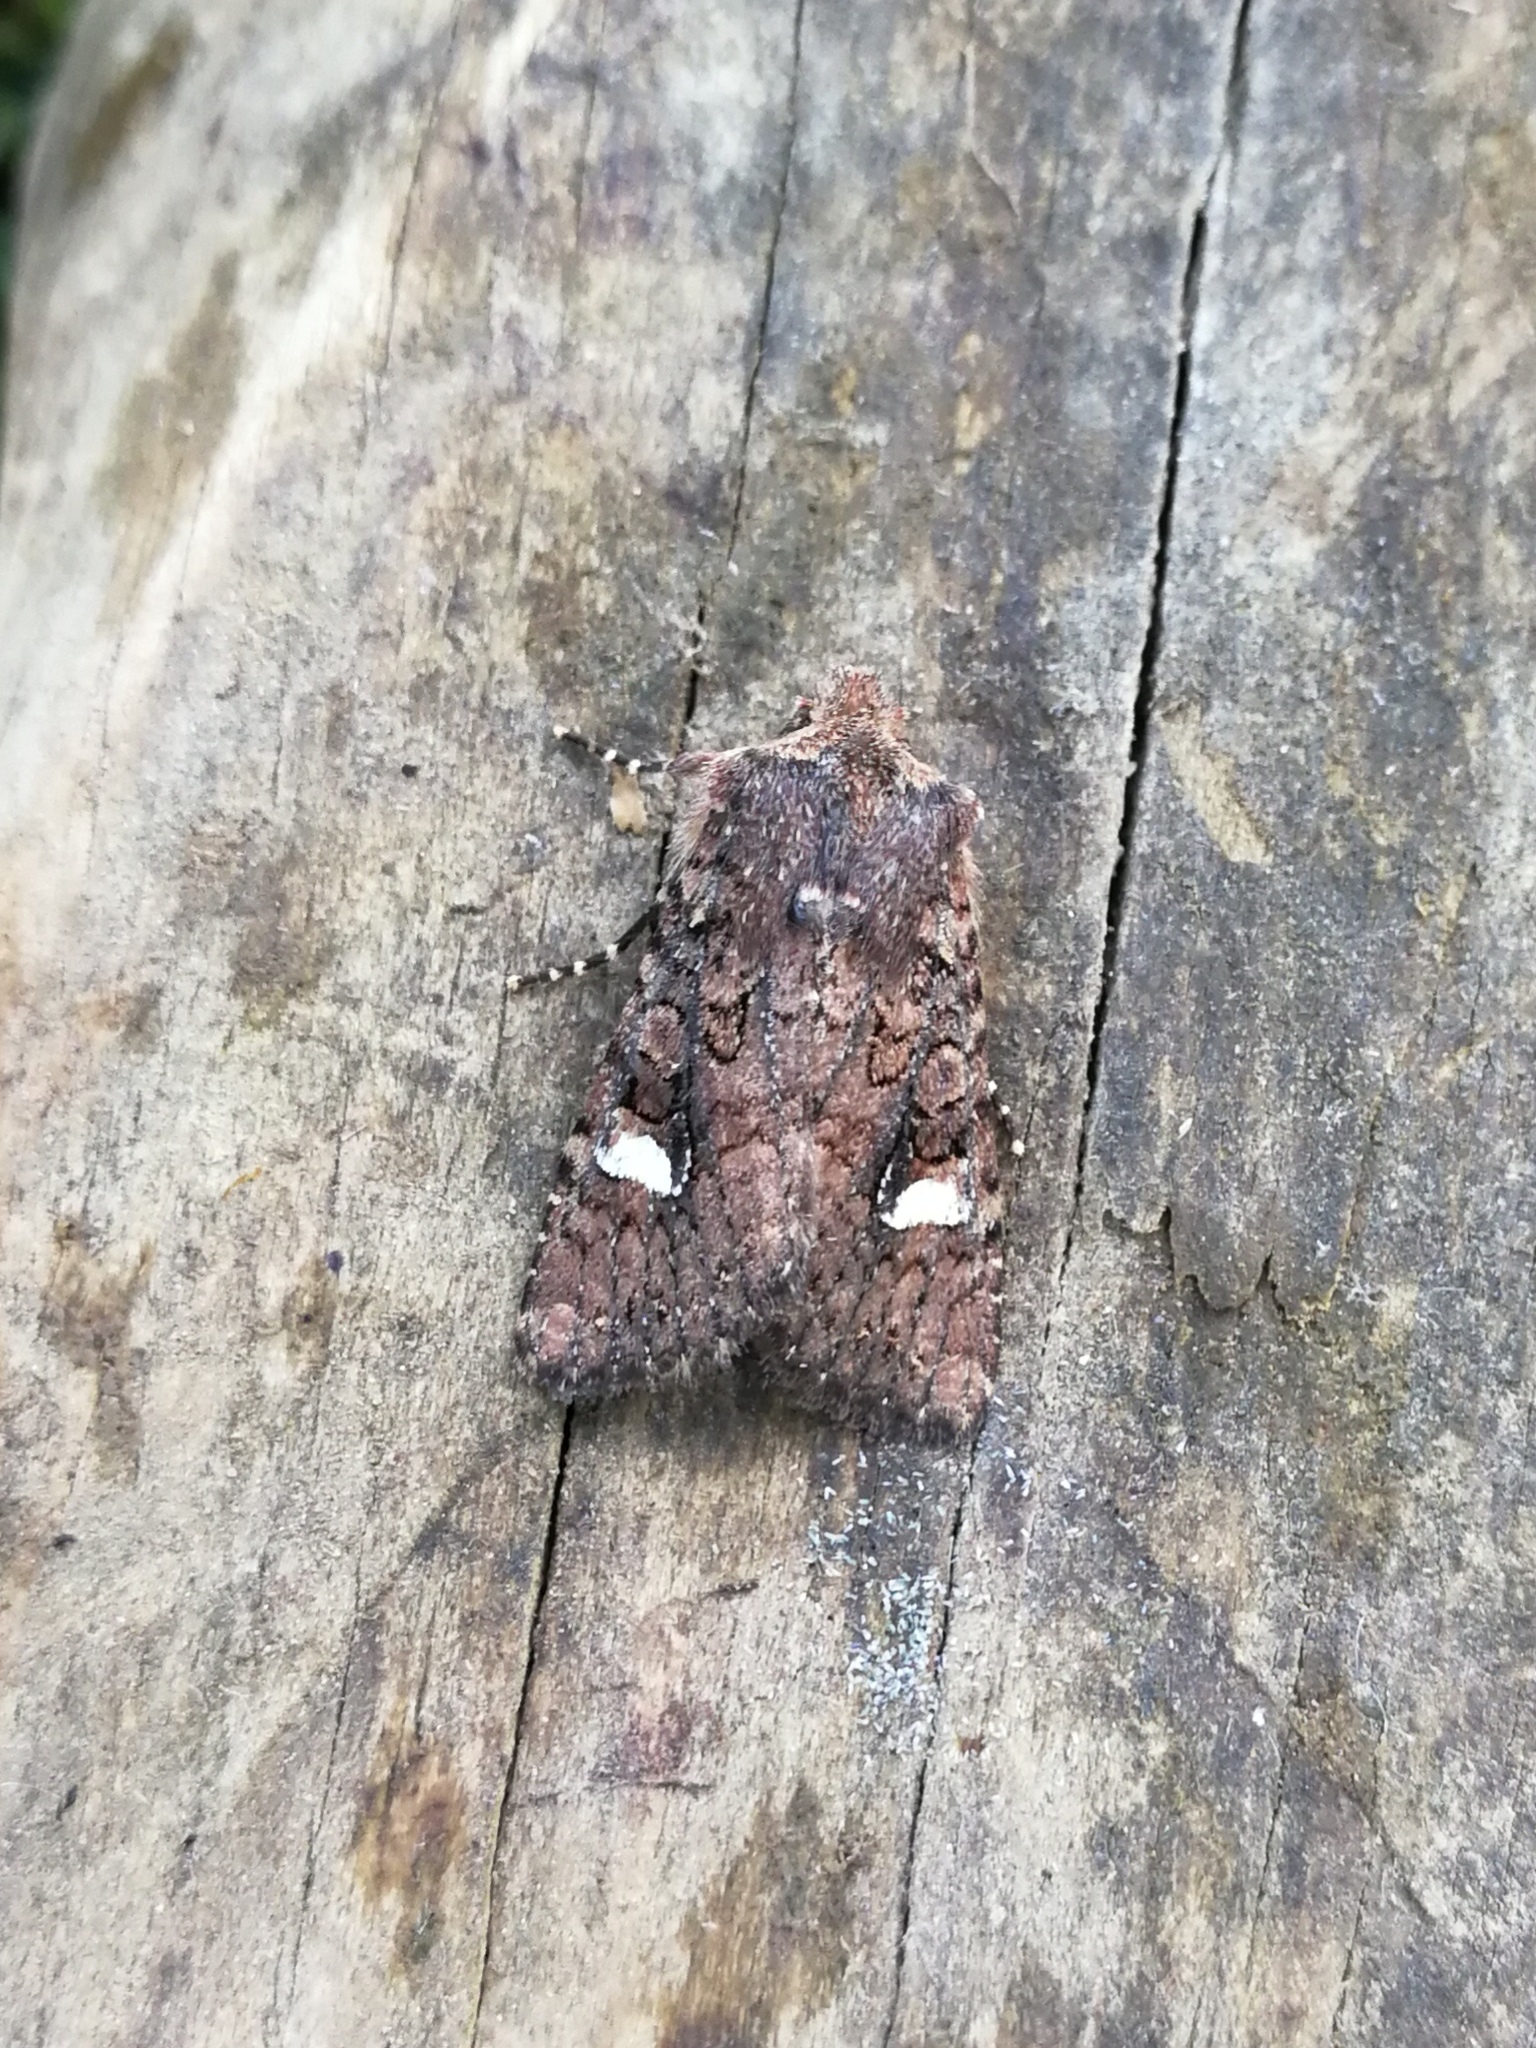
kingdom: Animalia
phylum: Arthropoda
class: Insecta
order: Lepidoptera
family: Noctuidae
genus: Dryobota
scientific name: Dryobota labecula
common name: Oak rustic
